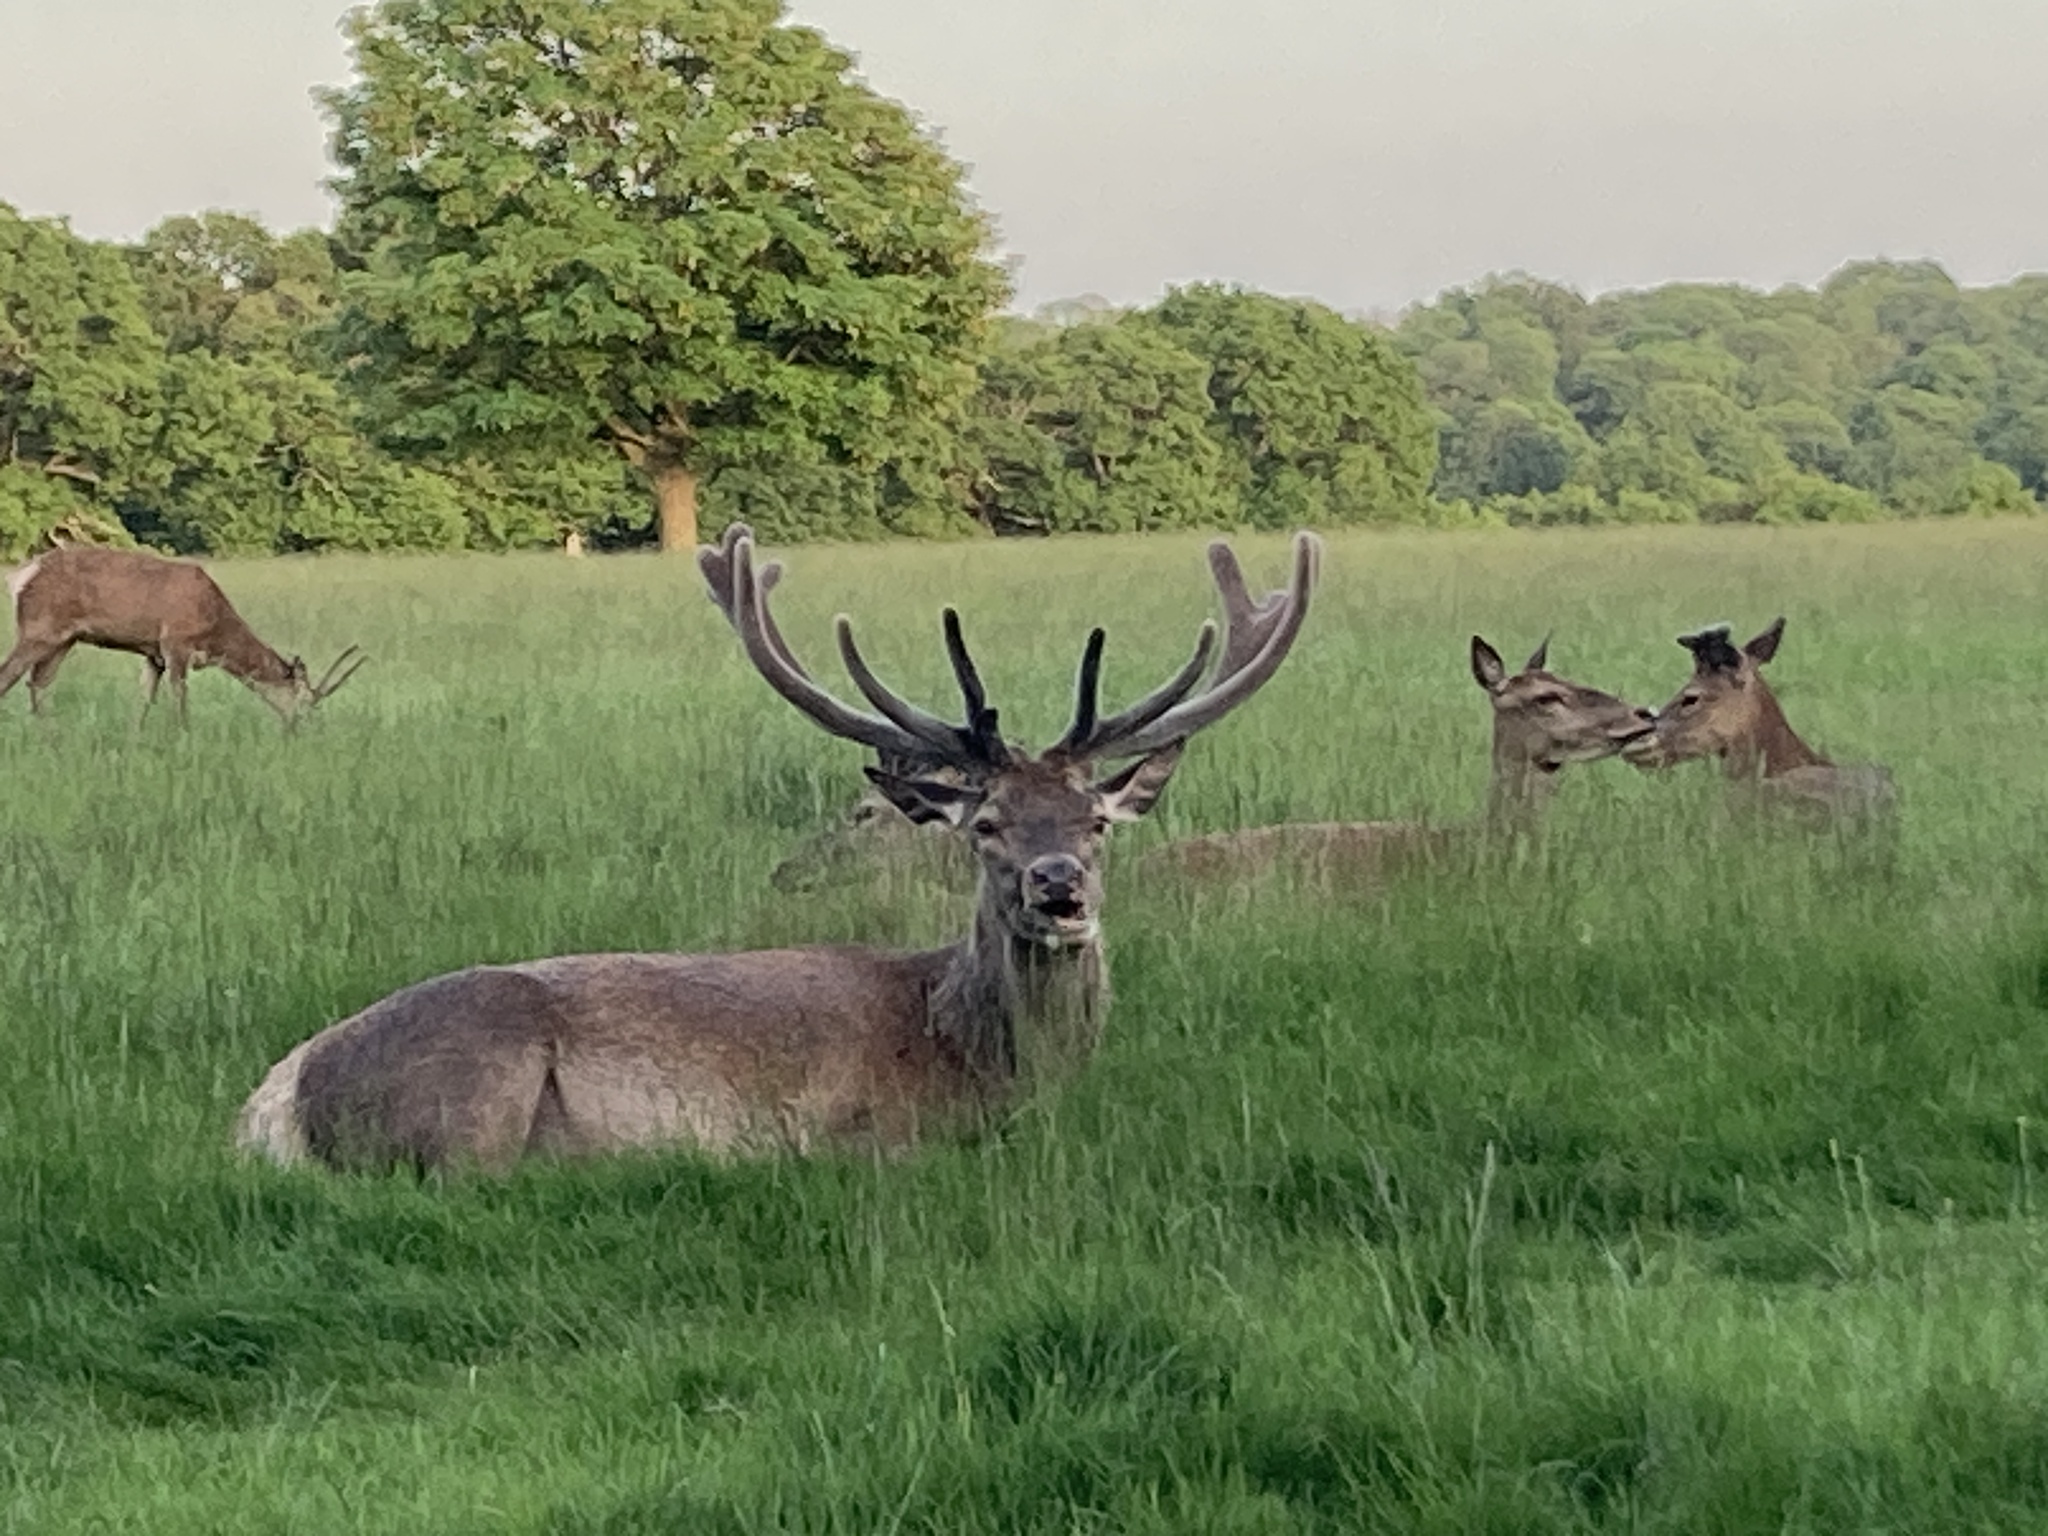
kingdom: Animalia
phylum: Chordata
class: Mammalia
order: Artiodactyla
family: Cervidae
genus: Cervus
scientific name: Cervus elaphus
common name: Red deer
